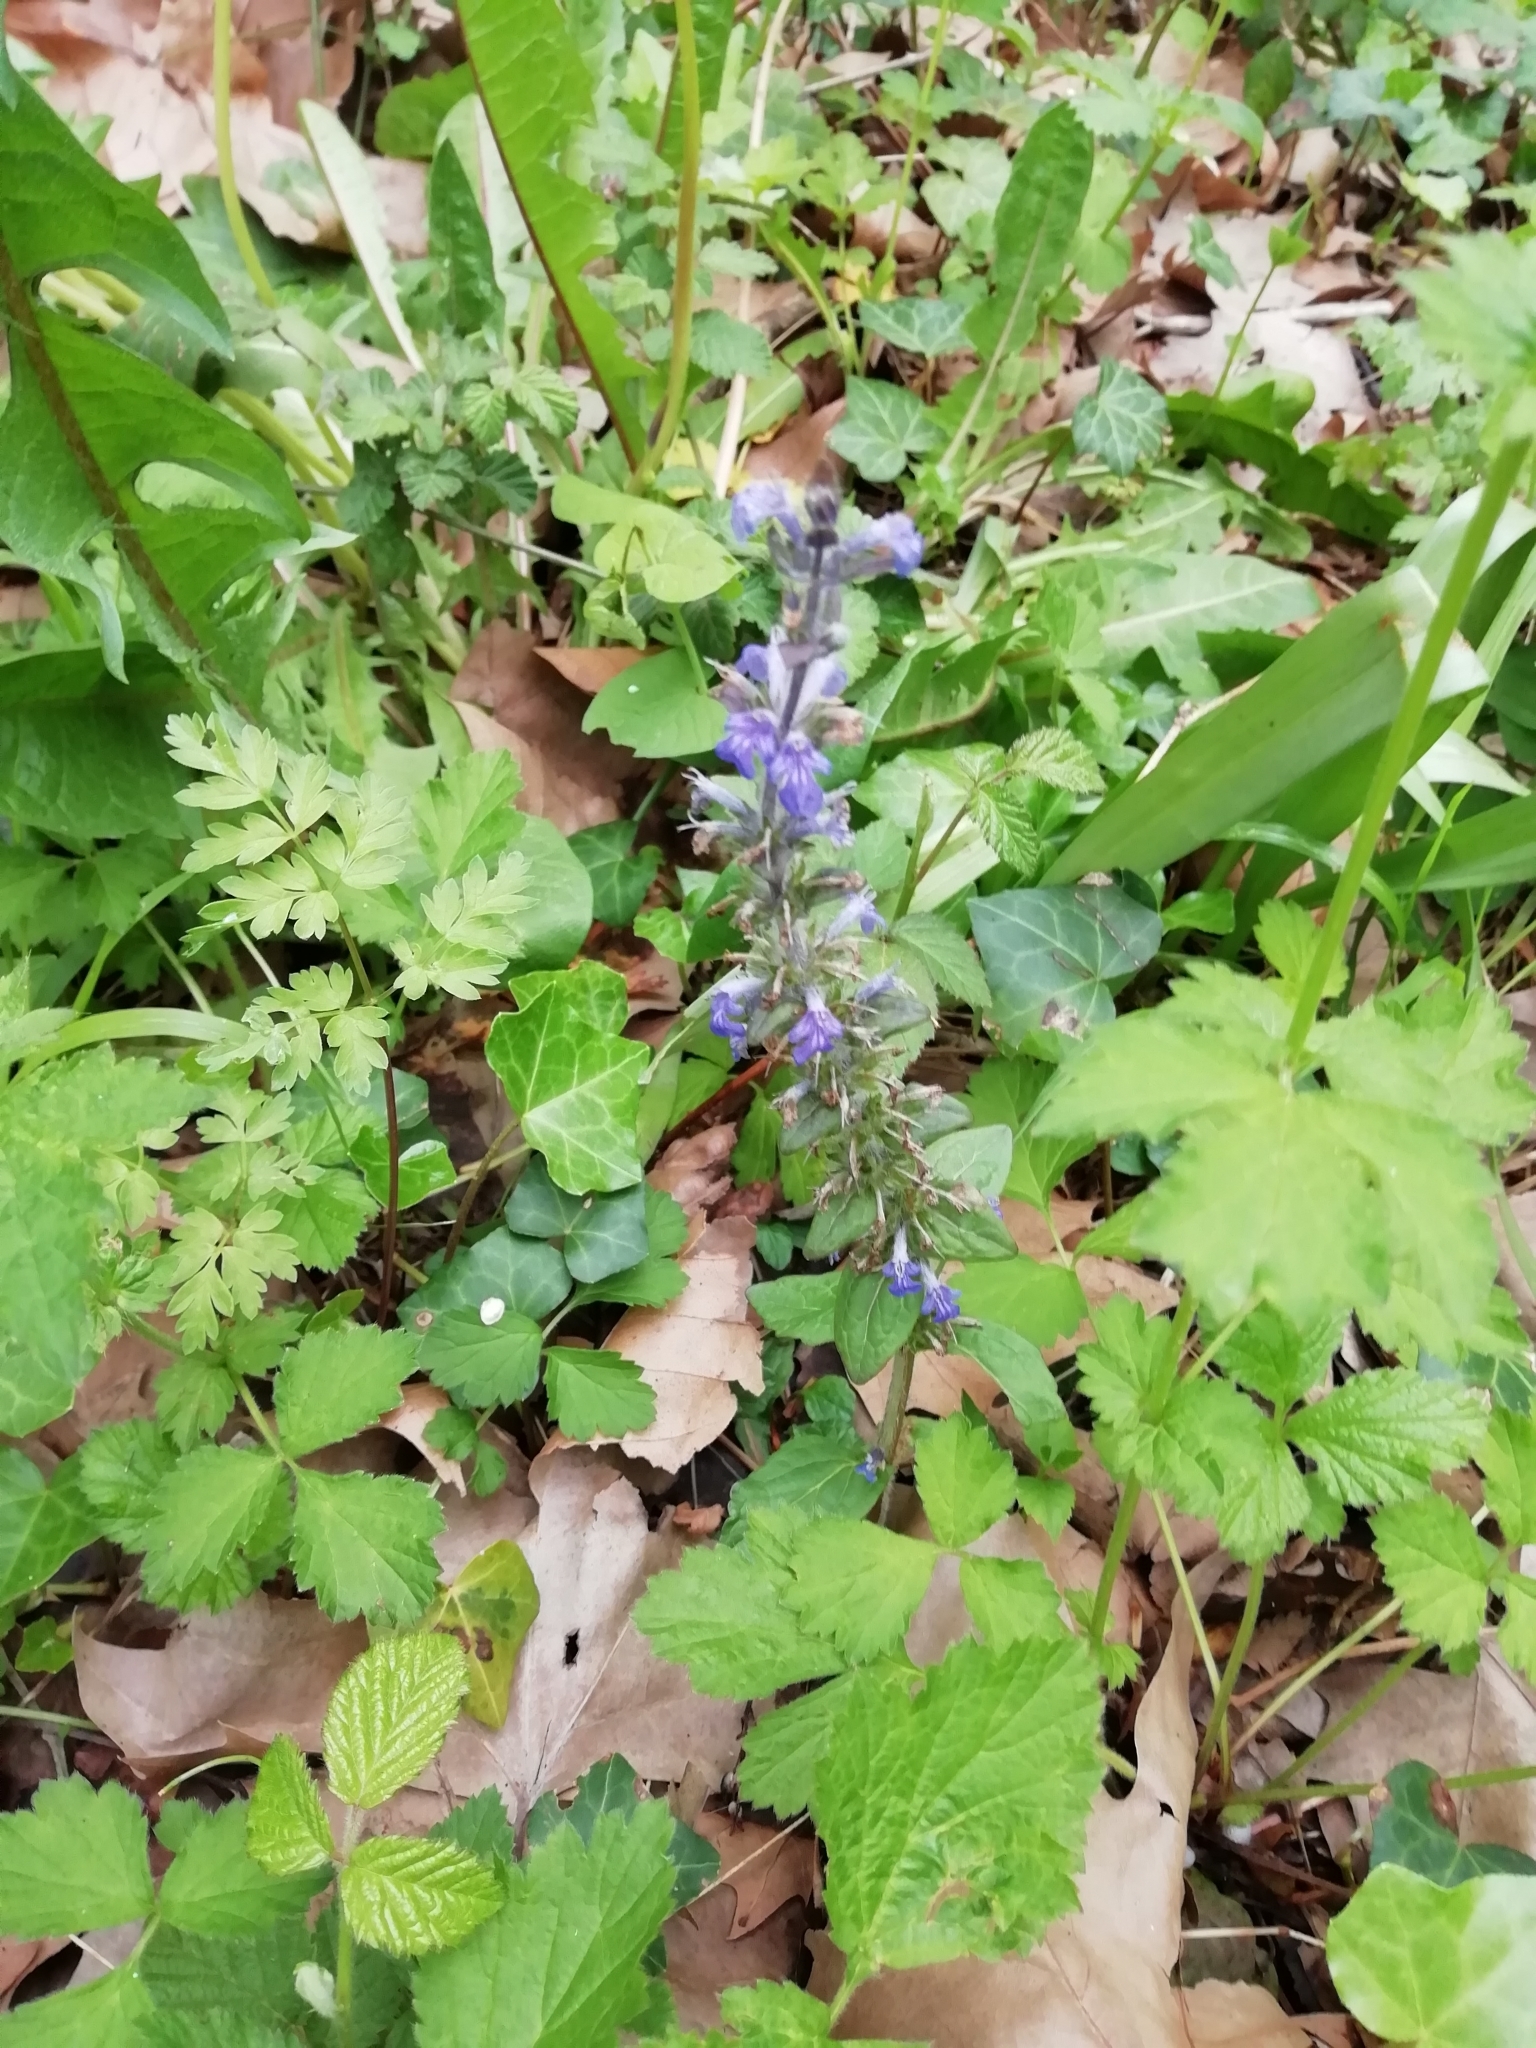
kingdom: Plantae
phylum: Tracheophyta
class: Magnoliopsida
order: Lamiales
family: Lamiaceae
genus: Ajuga
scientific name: Ajuga reptans
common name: Bugle
